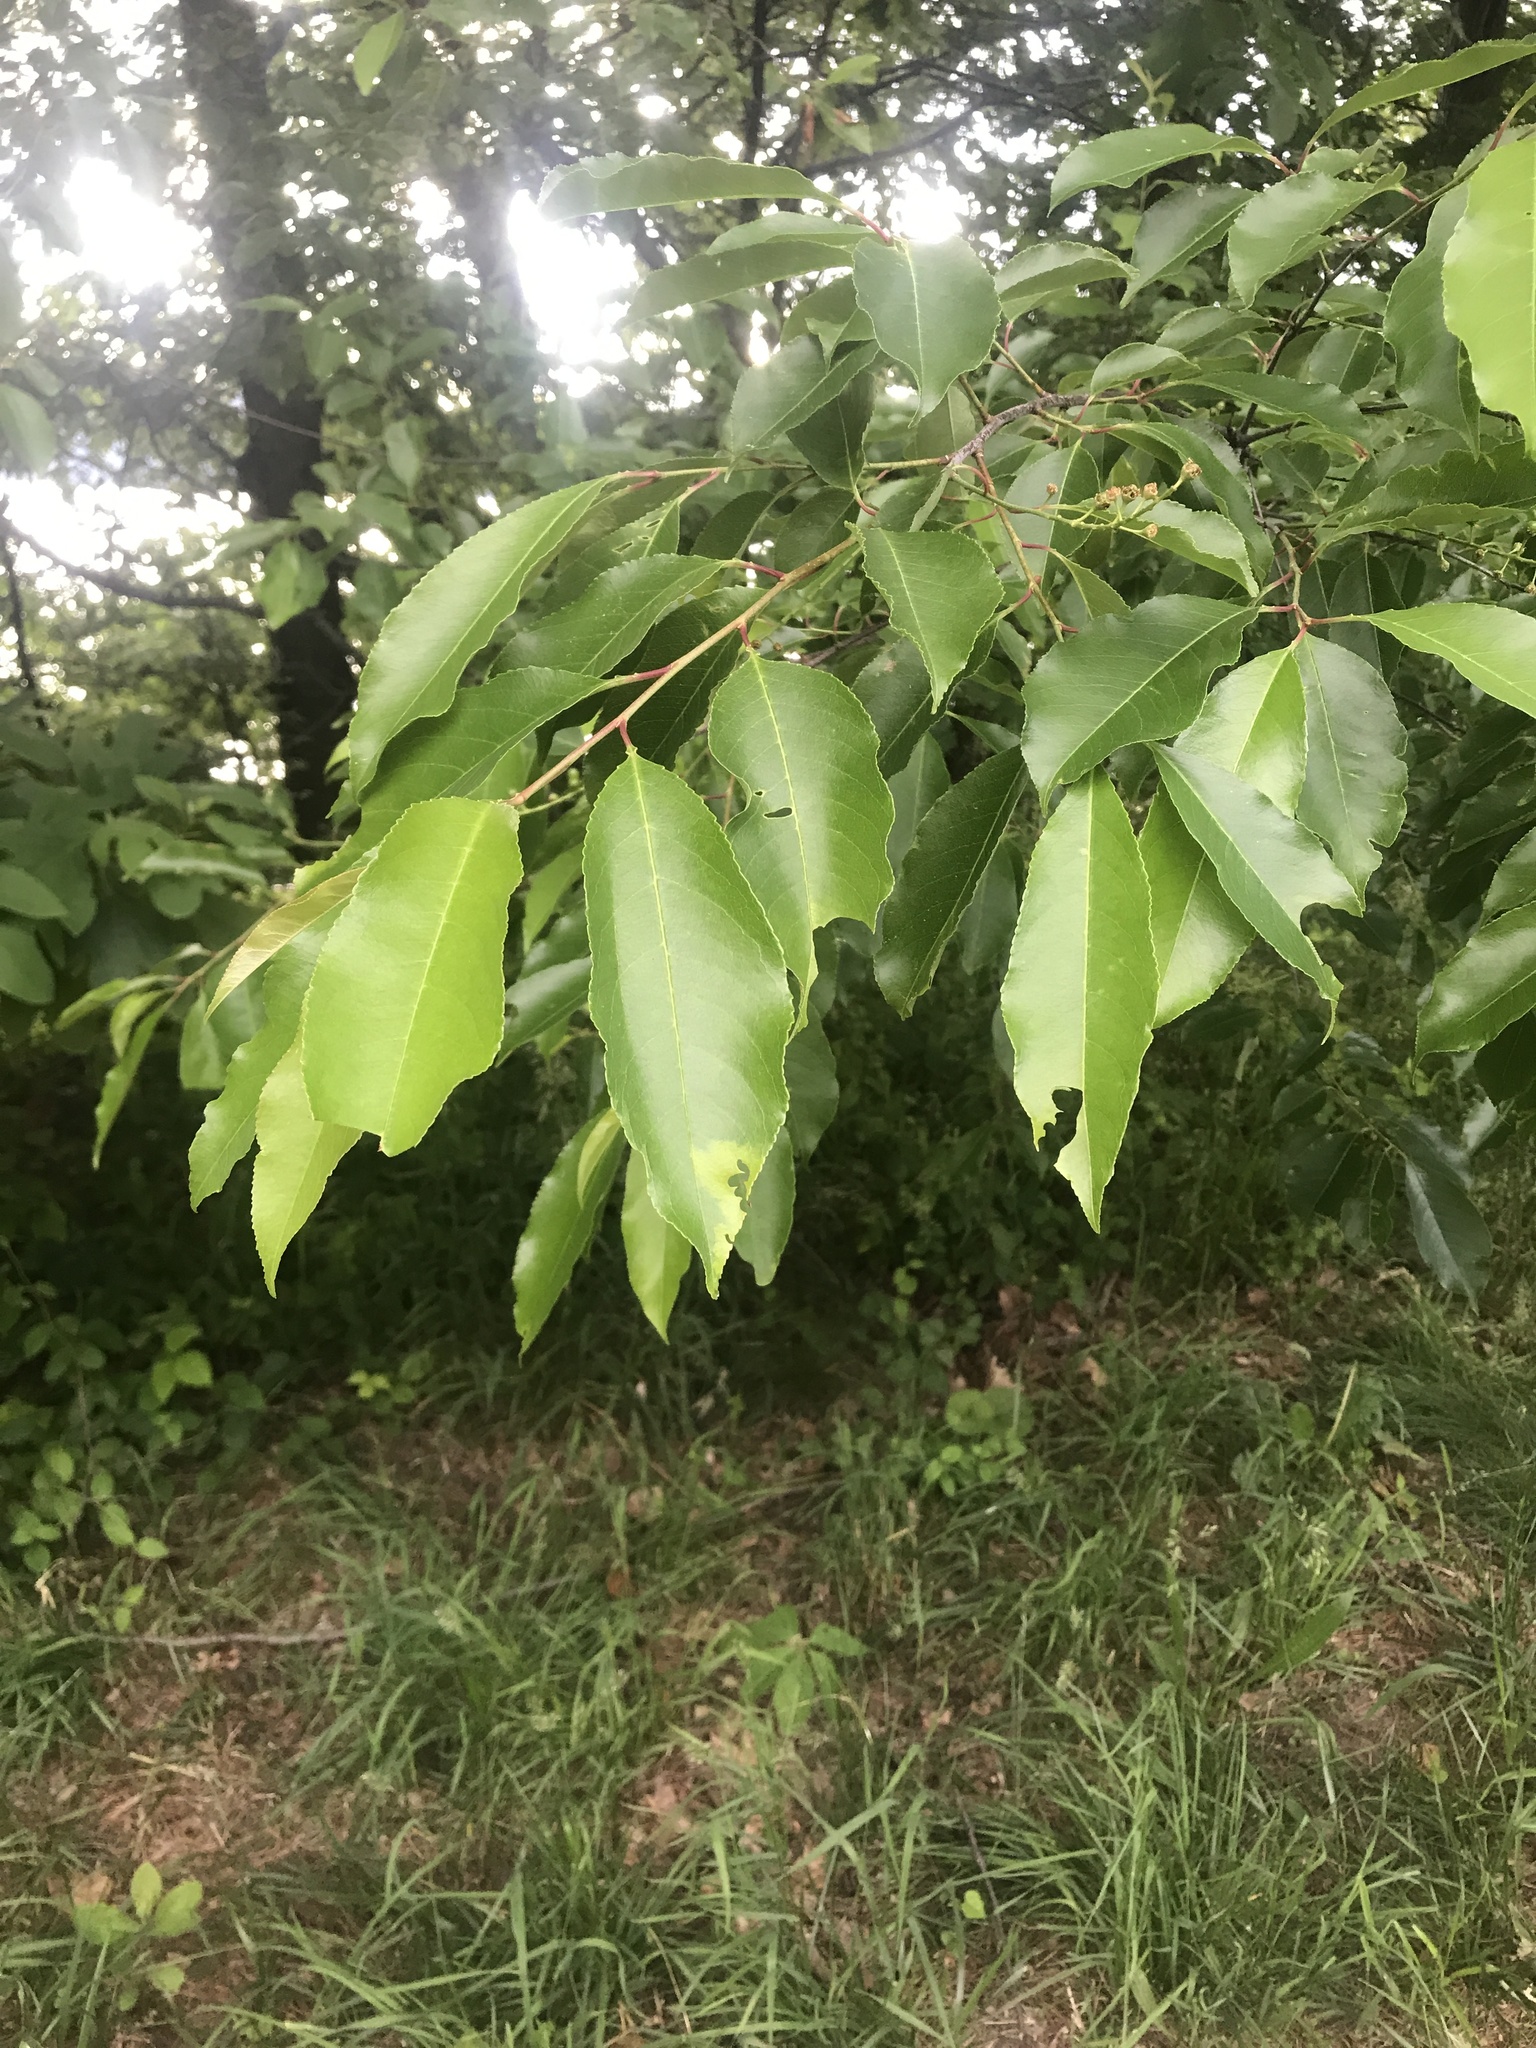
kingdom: Plantae
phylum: Tracheophyta
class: Magnoliopsida
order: Rosales
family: Rosaceae
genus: Prunus
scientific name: Prunus serotina
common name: Black cherry
